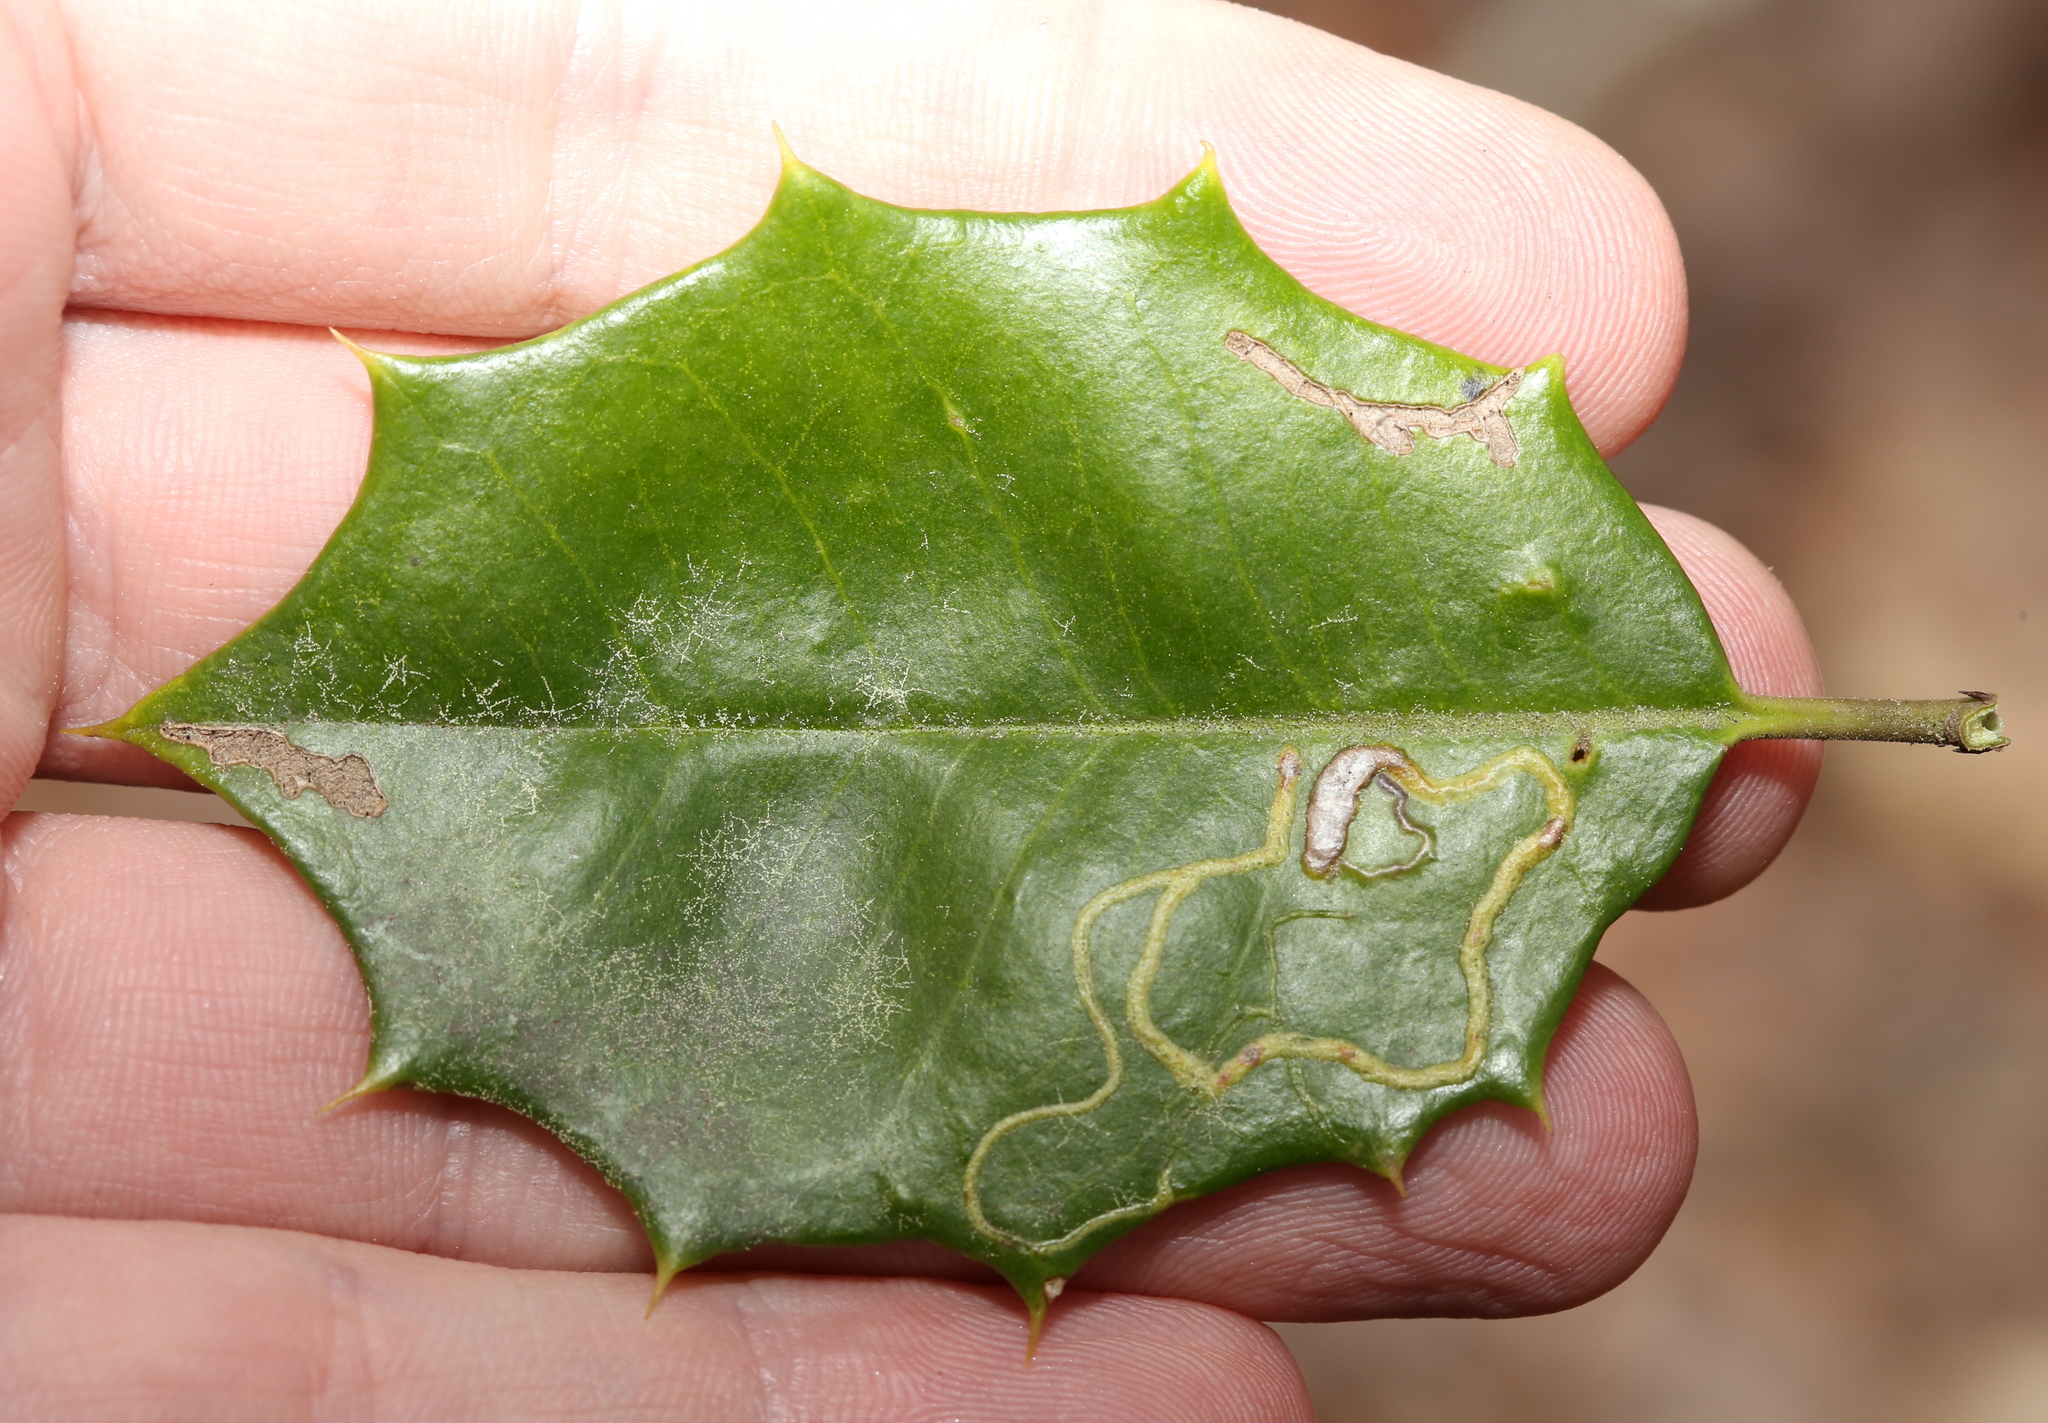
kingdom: Animalia
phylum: Arthropoda
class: Insecta
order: Diptera
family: Agromyzidae
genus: Phytomyza
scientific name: Phytomyza opacae
